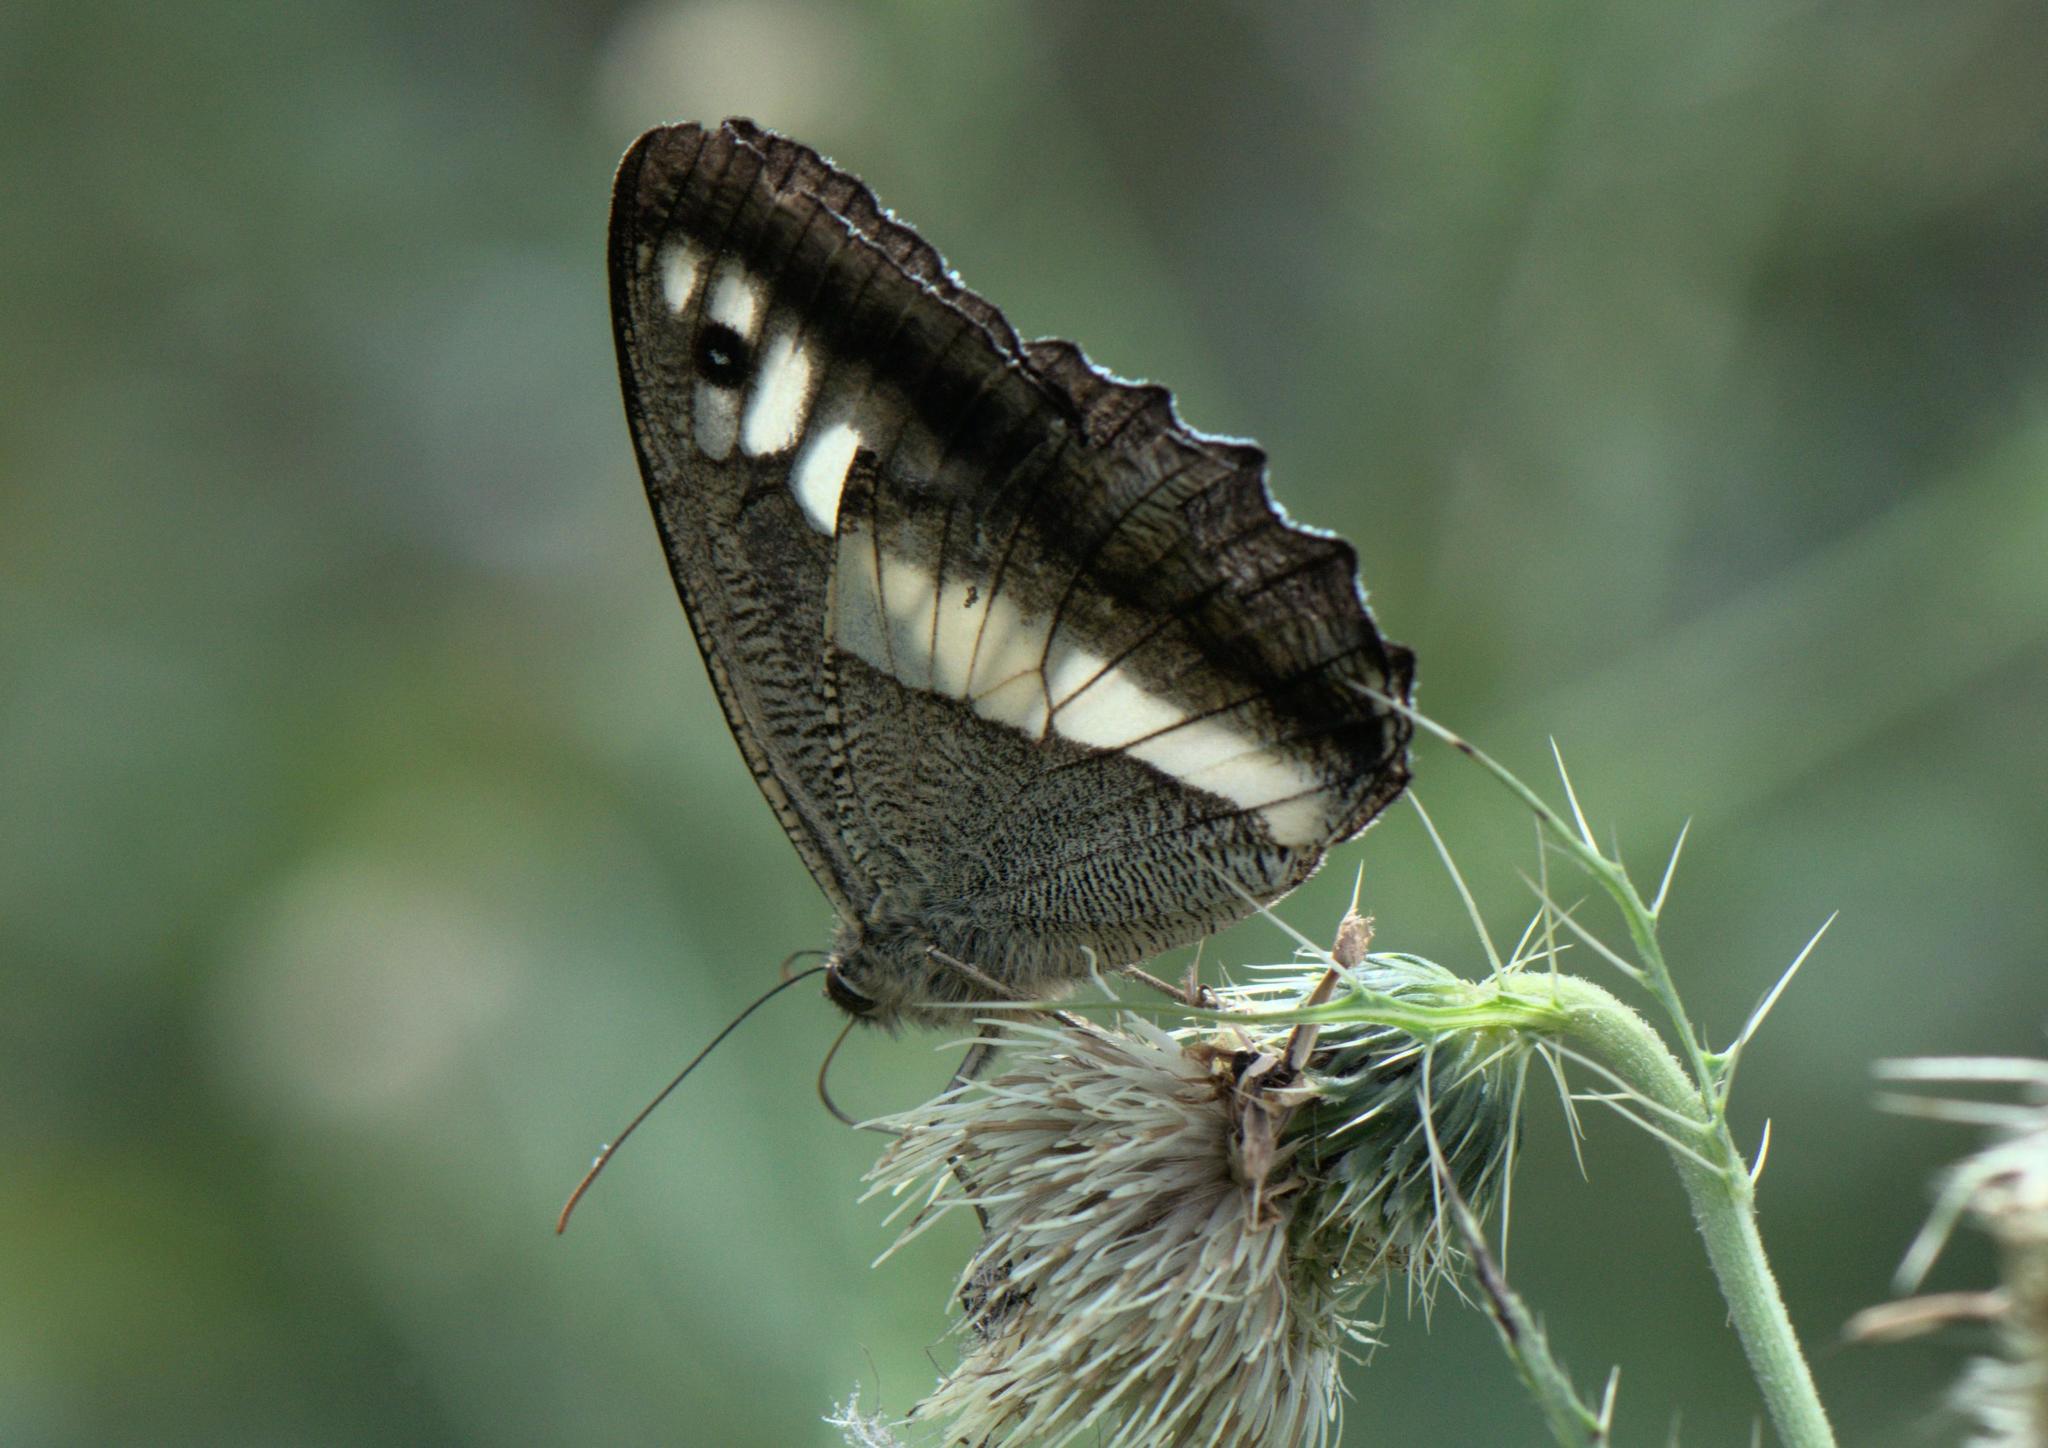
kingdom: Animalia
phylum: Arthropoda
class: Insecta
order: Lepidoptera
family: Nymphalidae
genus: Satyrus
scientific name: Satyrus
